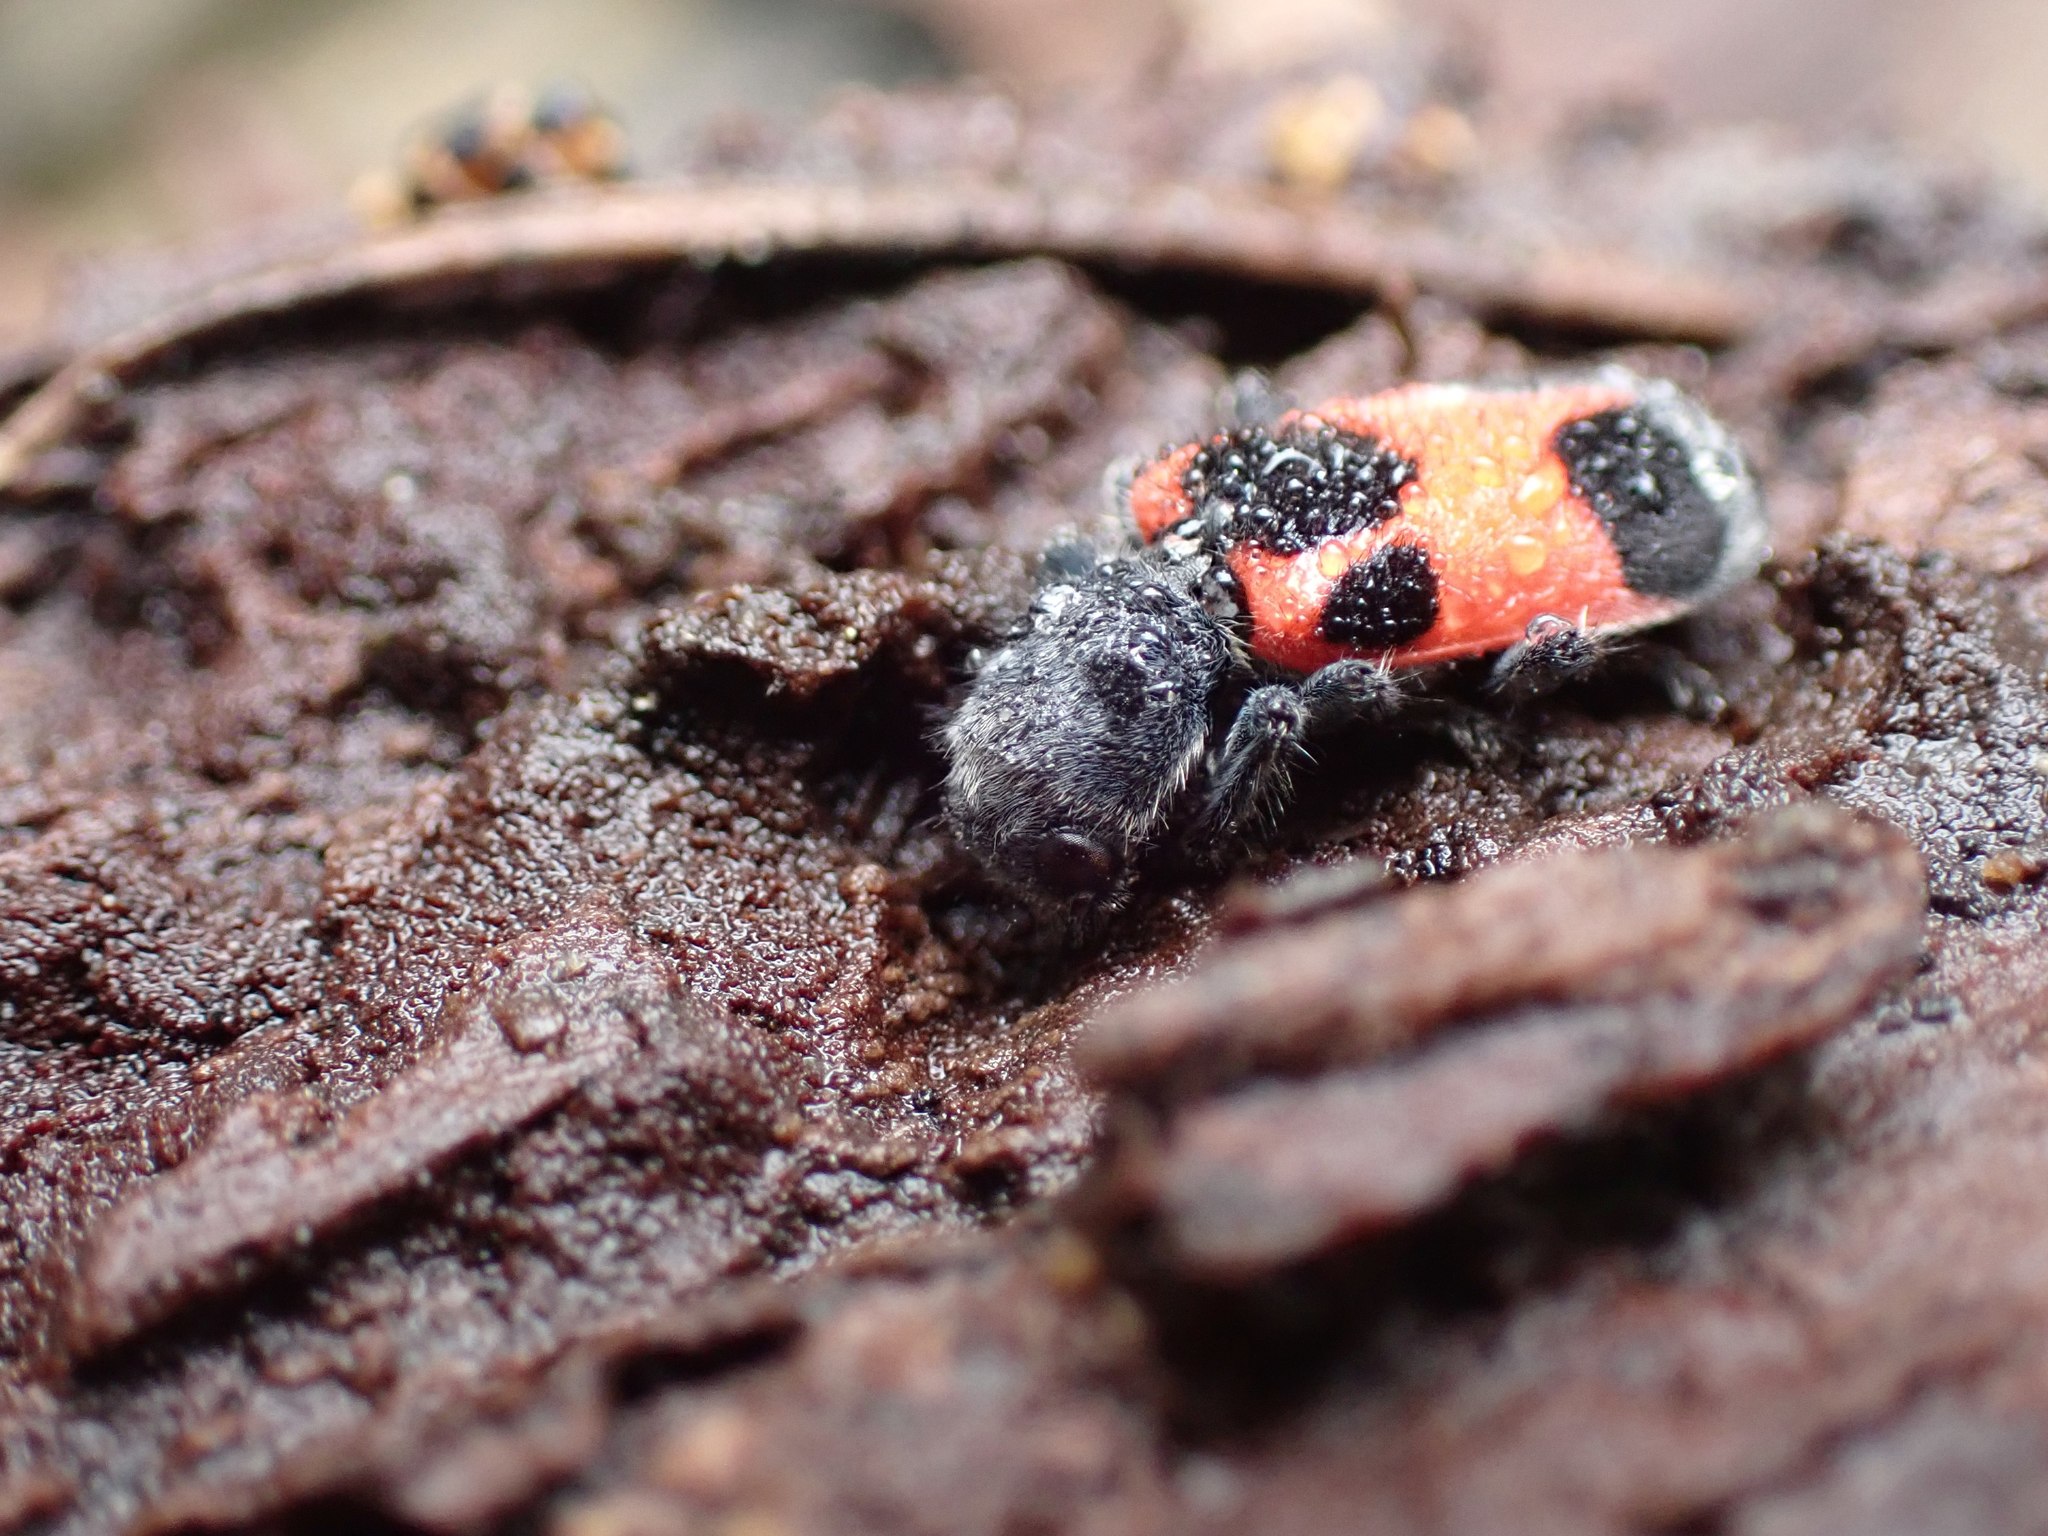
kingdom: Animalia
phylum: Arthropoda
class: Insecta
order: Coleoptera
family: Cleridae
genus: Enoclerus
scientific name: Enoclerus eximius
